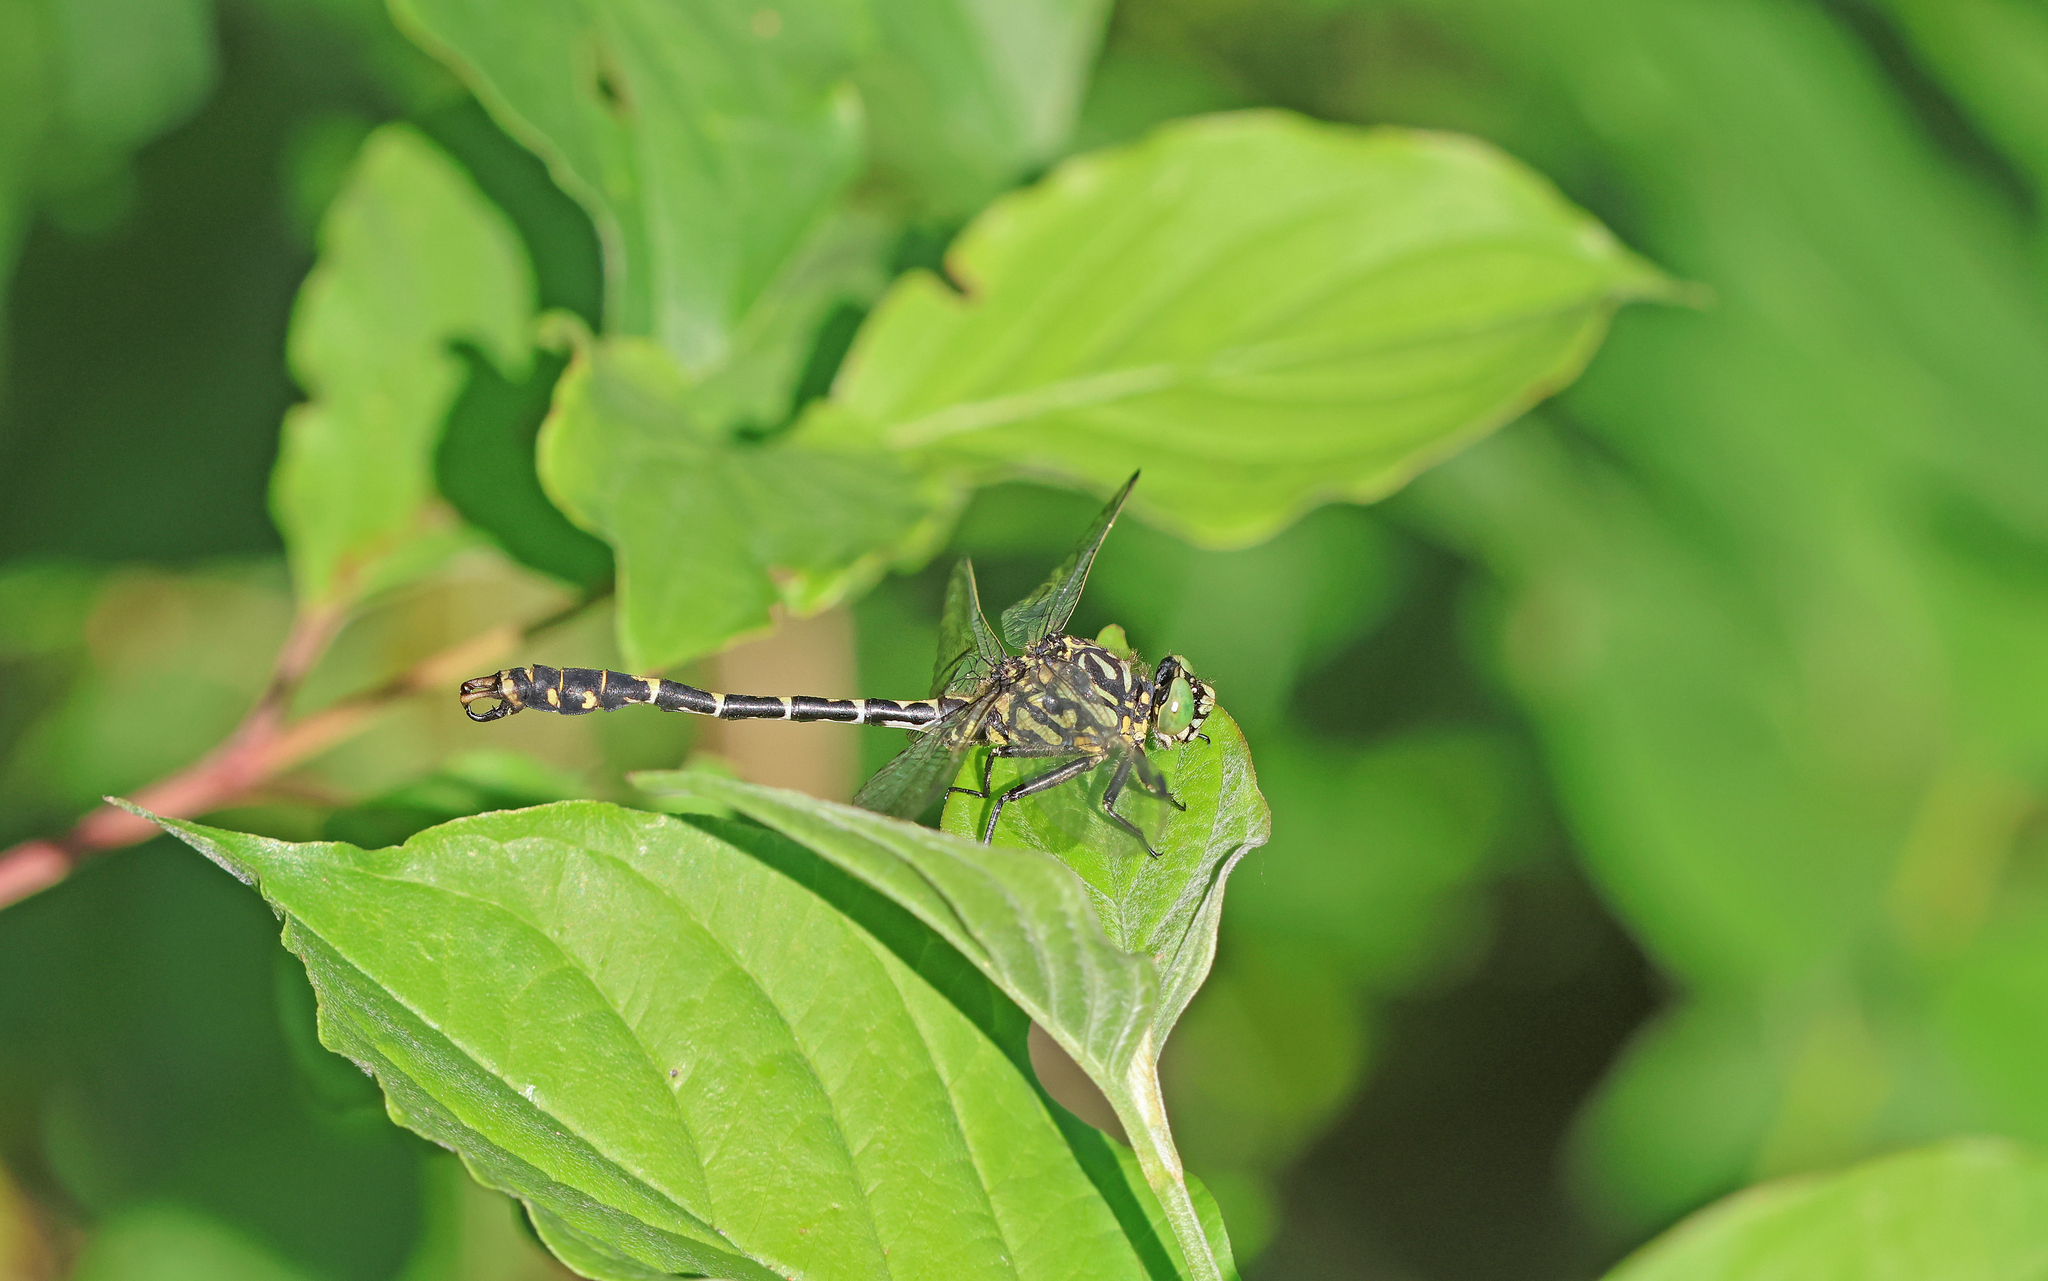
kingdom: Animalia
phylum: Arthropoda
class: Insecta
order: Odonata
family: Gomphidae
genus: Onychogomphus
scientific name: Onychogomphus forcipatus
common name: Small pincertail
